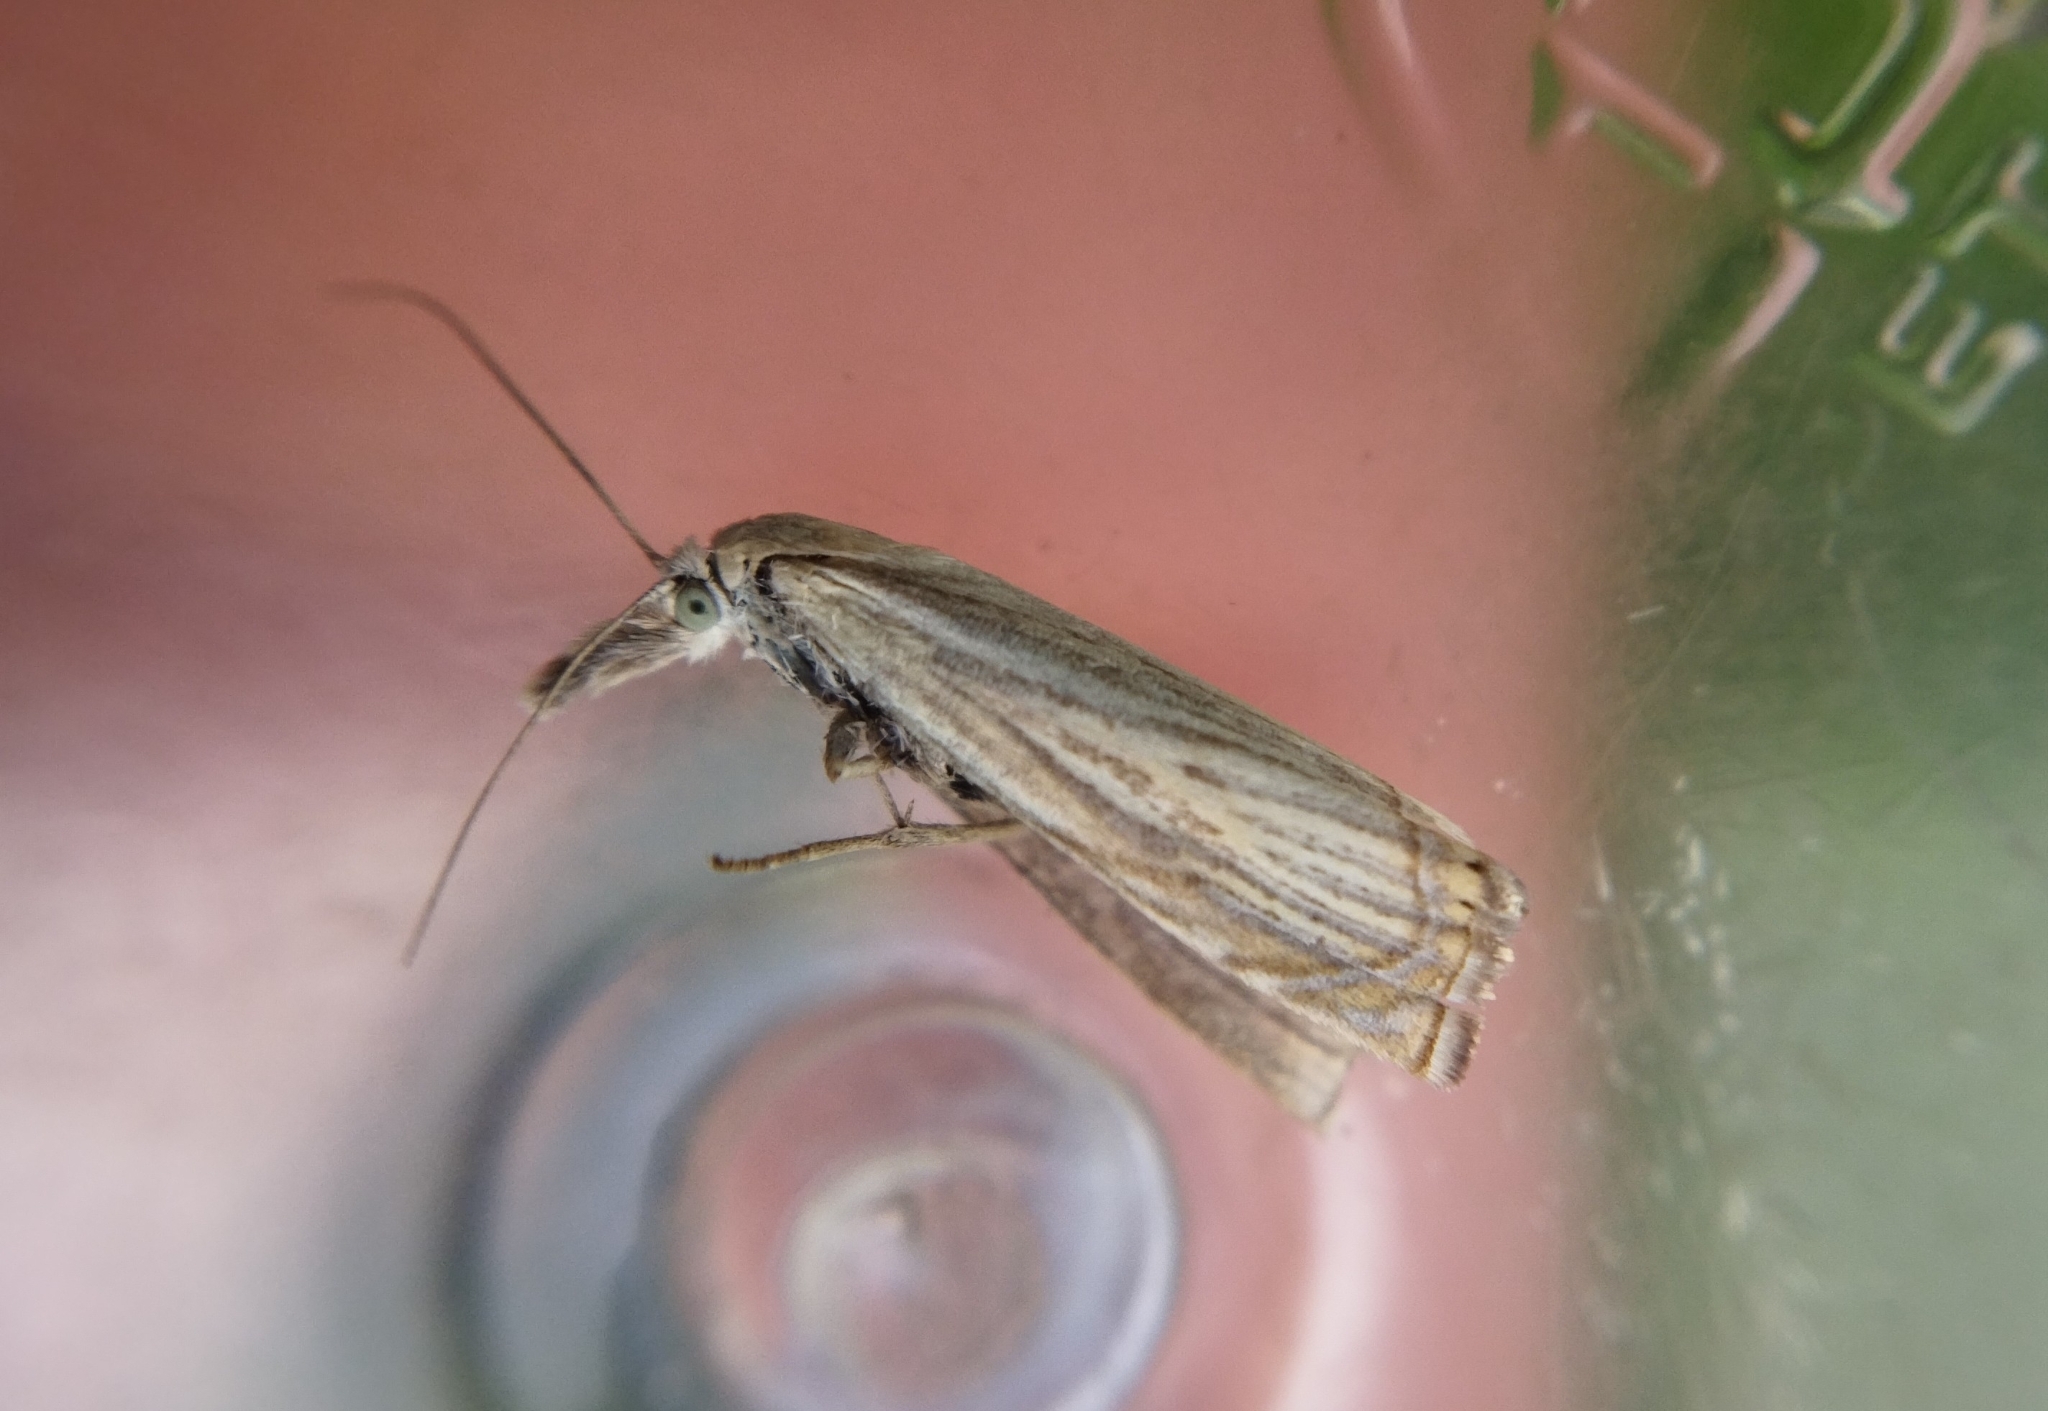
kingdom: Animalia
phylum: Arthropoda
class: Insecta
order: Lepidoptera
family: Crambidae
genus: Chrysoteuchia
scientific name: Chrysoteuchia culmella
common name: Garden grass-veneer
